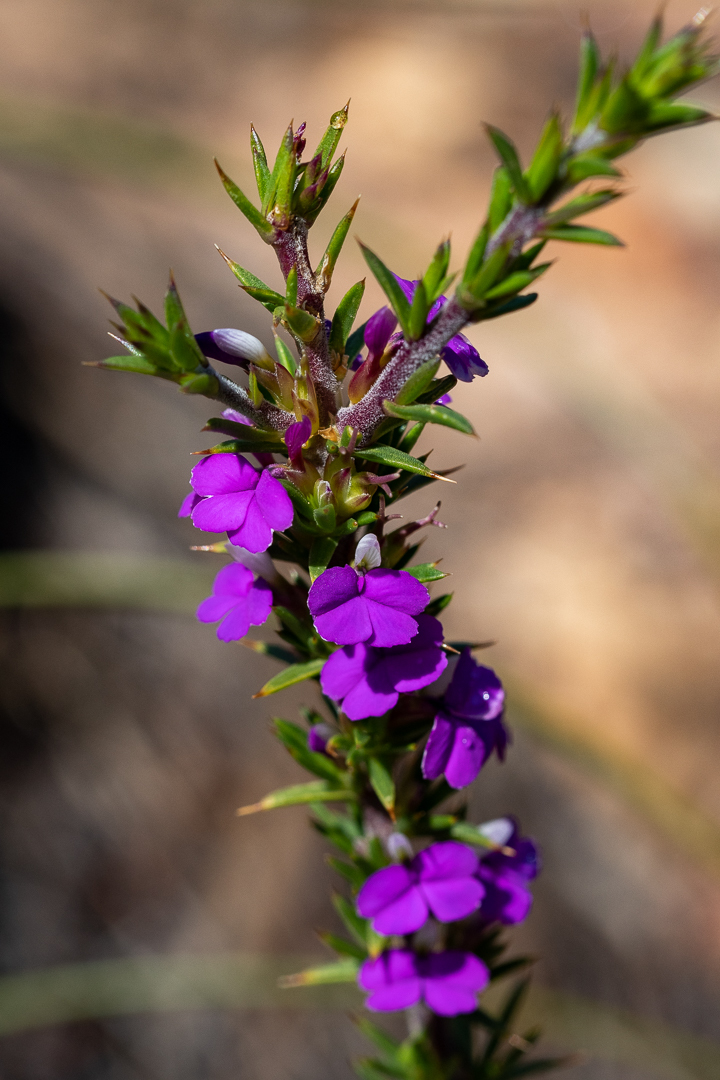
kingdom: Plantae
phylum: Tracheophyta
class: Magnoliopsida
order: Fabales
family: Polygalaceae
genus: Muraltia
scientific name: Muraltia heisteria
